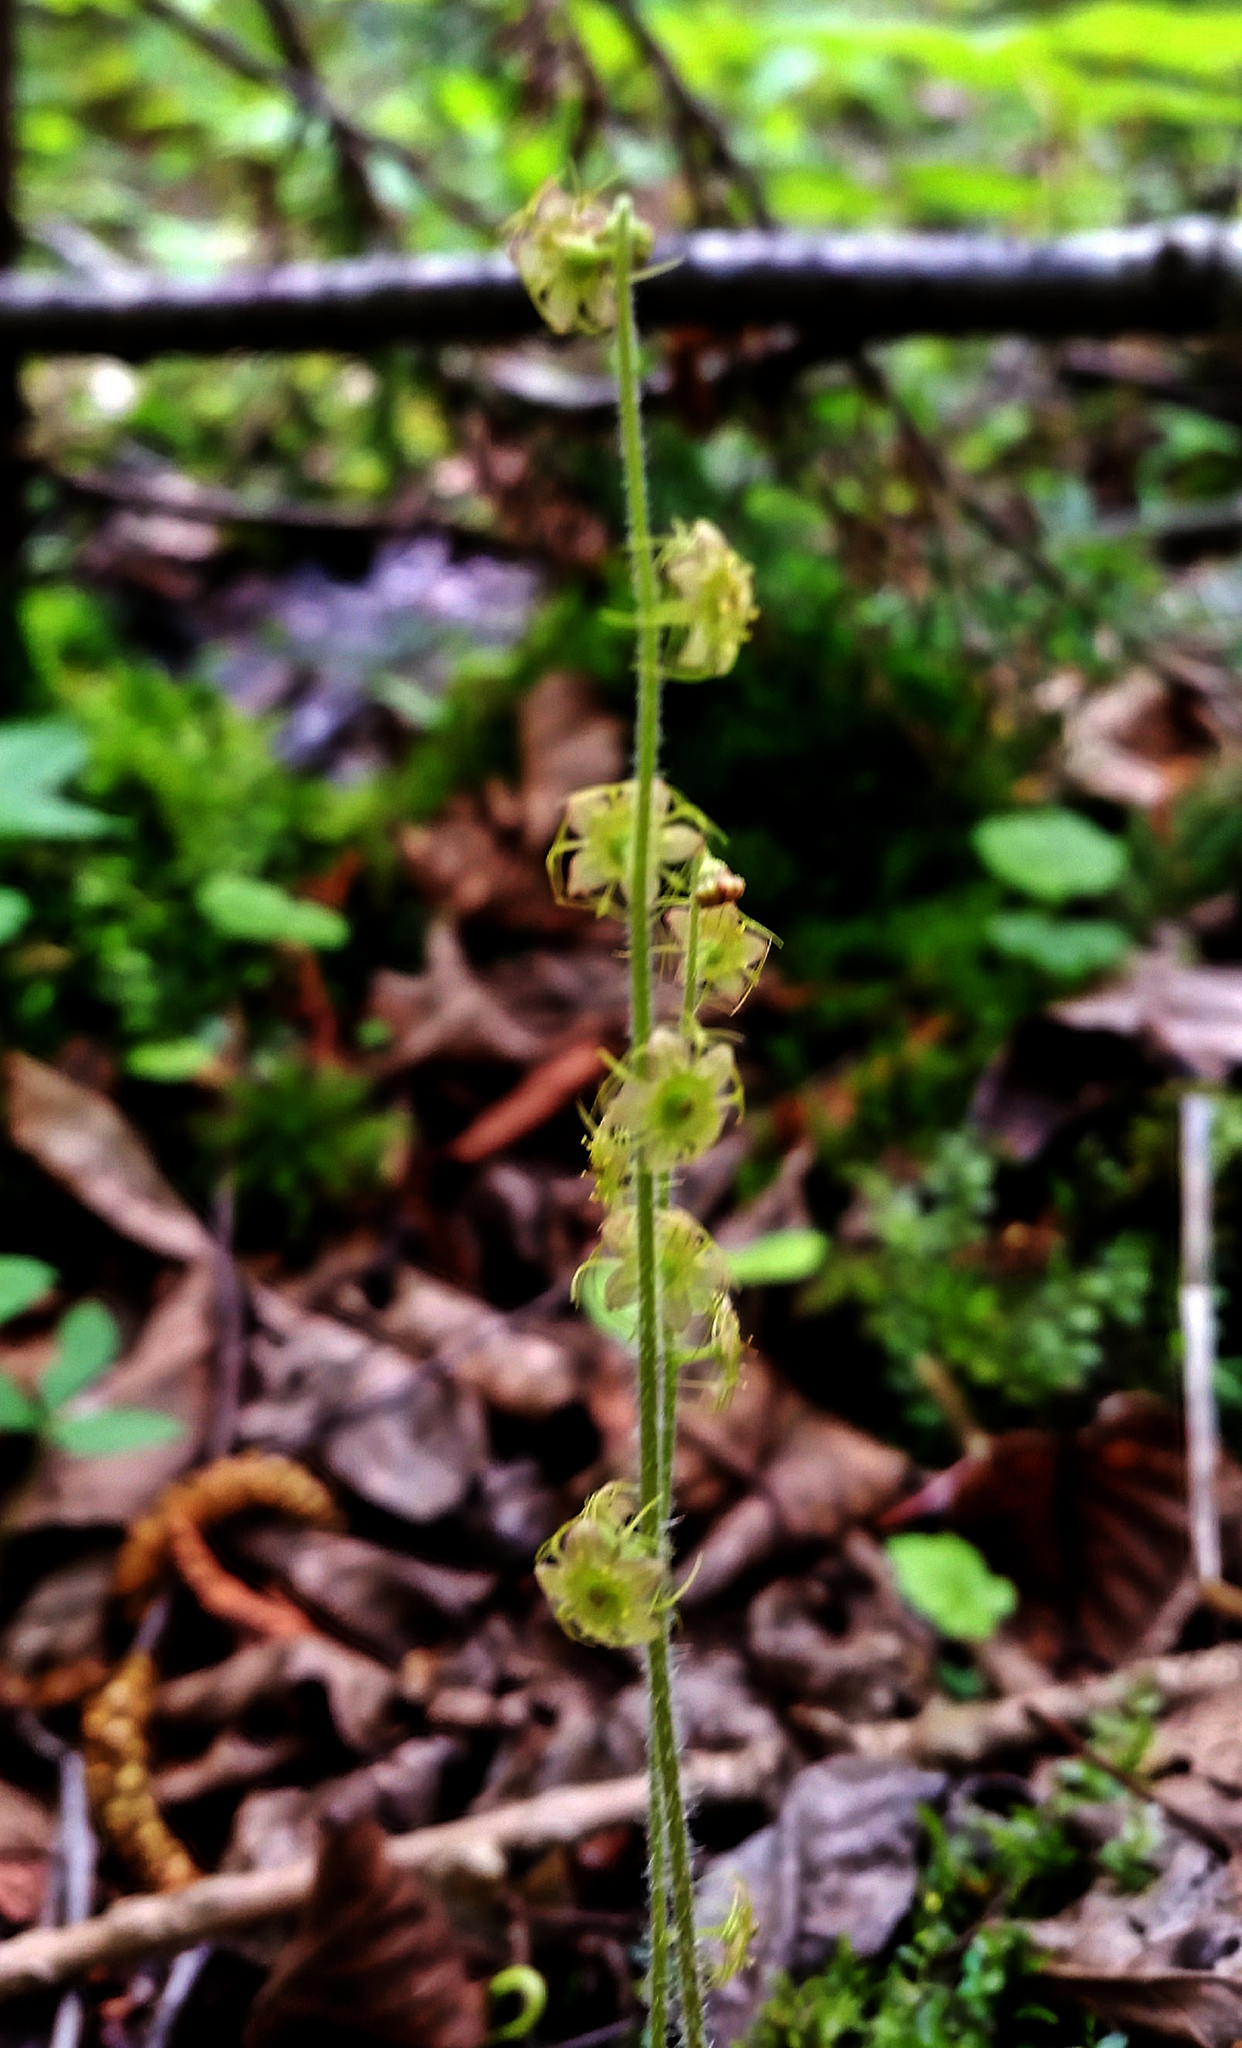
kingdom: Plantae
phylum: Tracheophyta
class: Magnoliopsida
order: Saxifragales
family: Saxifragaceae
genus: Mitella
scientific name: Mitella nuda
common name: Bare-stemmed bishop's-cap
